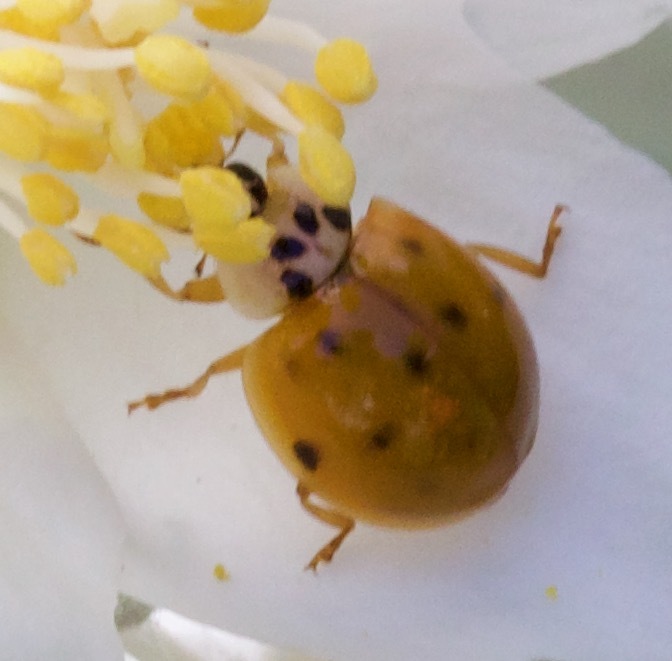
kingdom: Animalia
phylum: Arthropoda
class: Insecta
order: Coleoptera
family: Coccinellidae
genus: Harmonia
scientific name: Harmonia axyridis
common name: Harlequin ladybird
